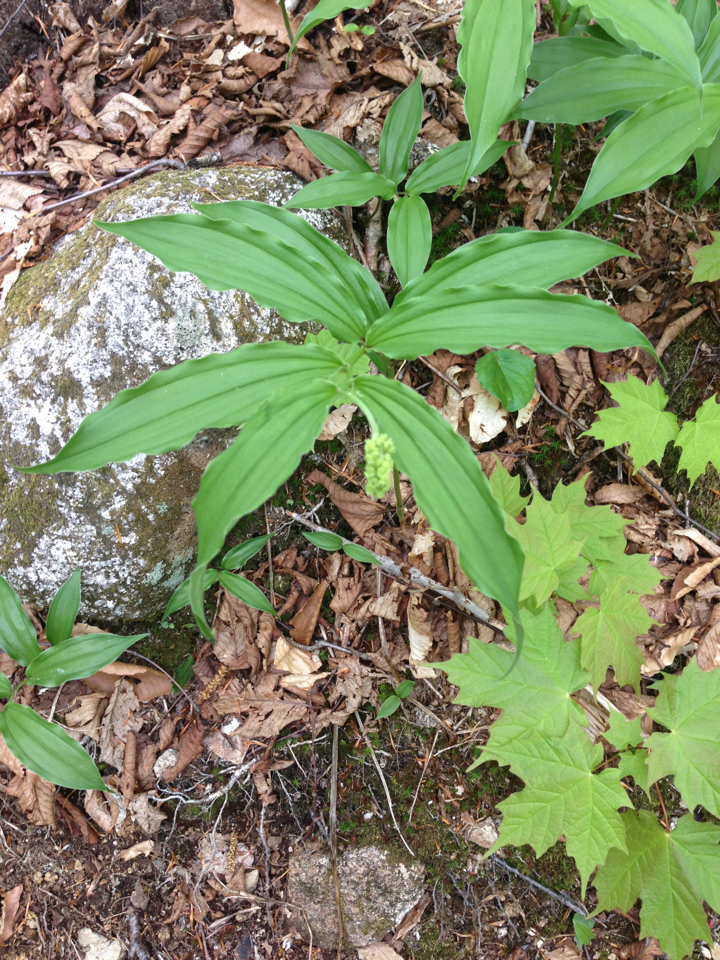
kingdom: Plantae
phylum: Tracheophyta
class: Liliopsida
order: Asparagales
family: Asparagaceae
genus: Maianthemum
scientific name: Maianthemum racemosum
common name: False spikenard
